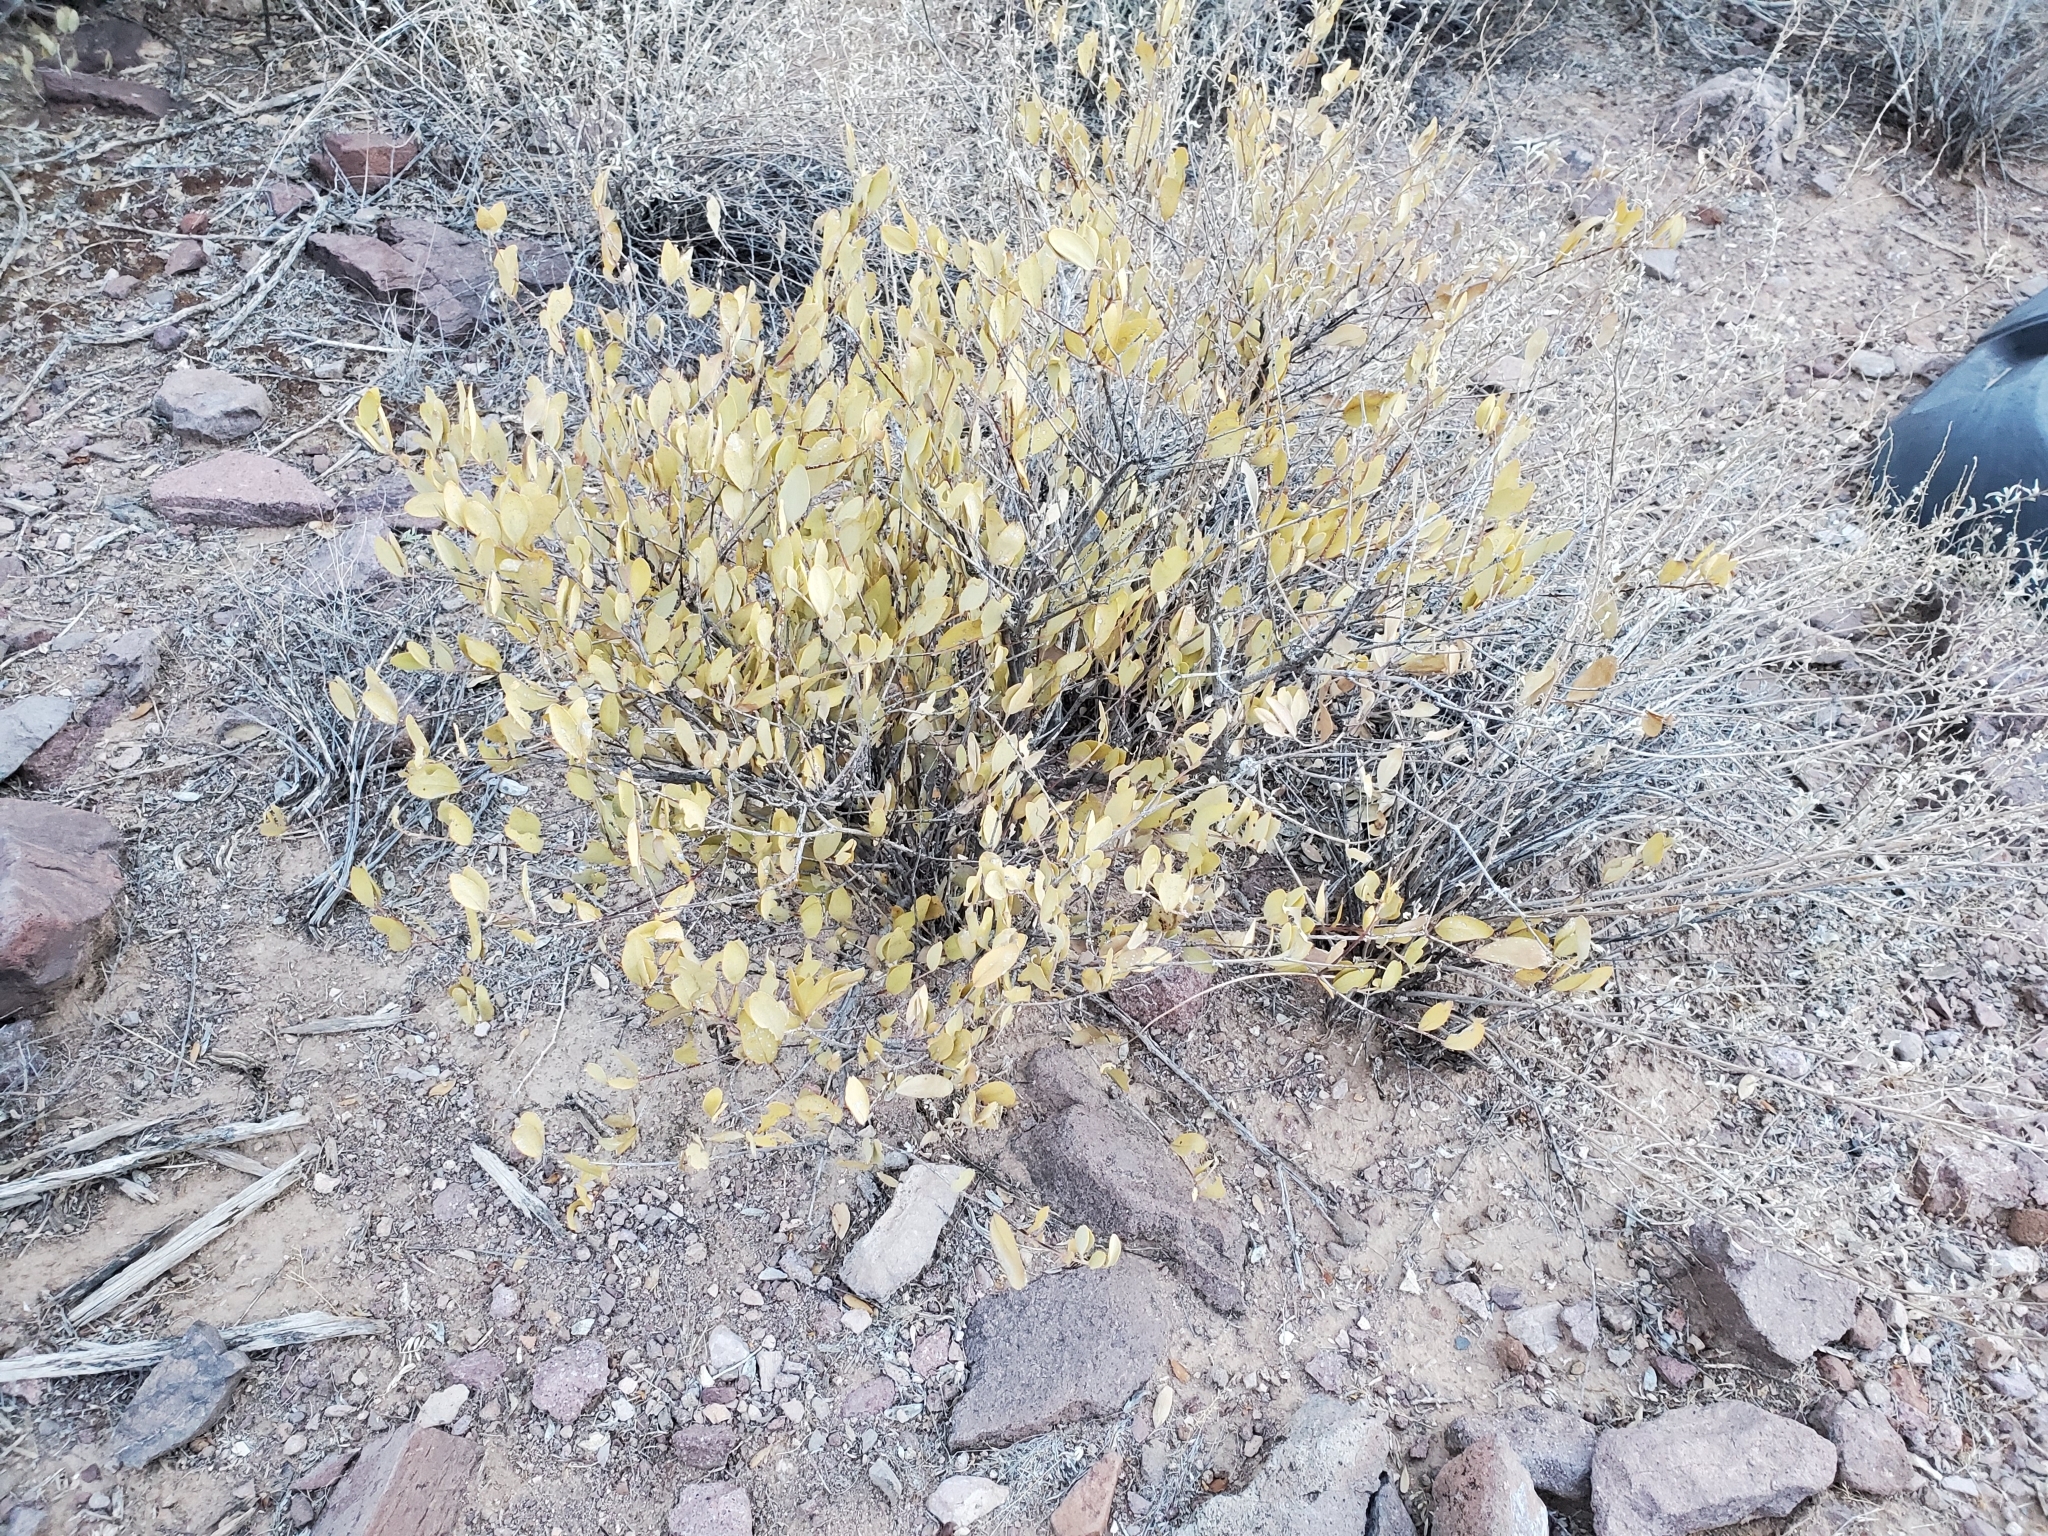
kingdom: Plantae
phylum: Tracheophyta
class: Magnoliopsida
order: Caryophyllales
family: Simmondsiaceae
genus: Simmondsia
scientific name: Simmondsia chinensis
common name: Jojoba
